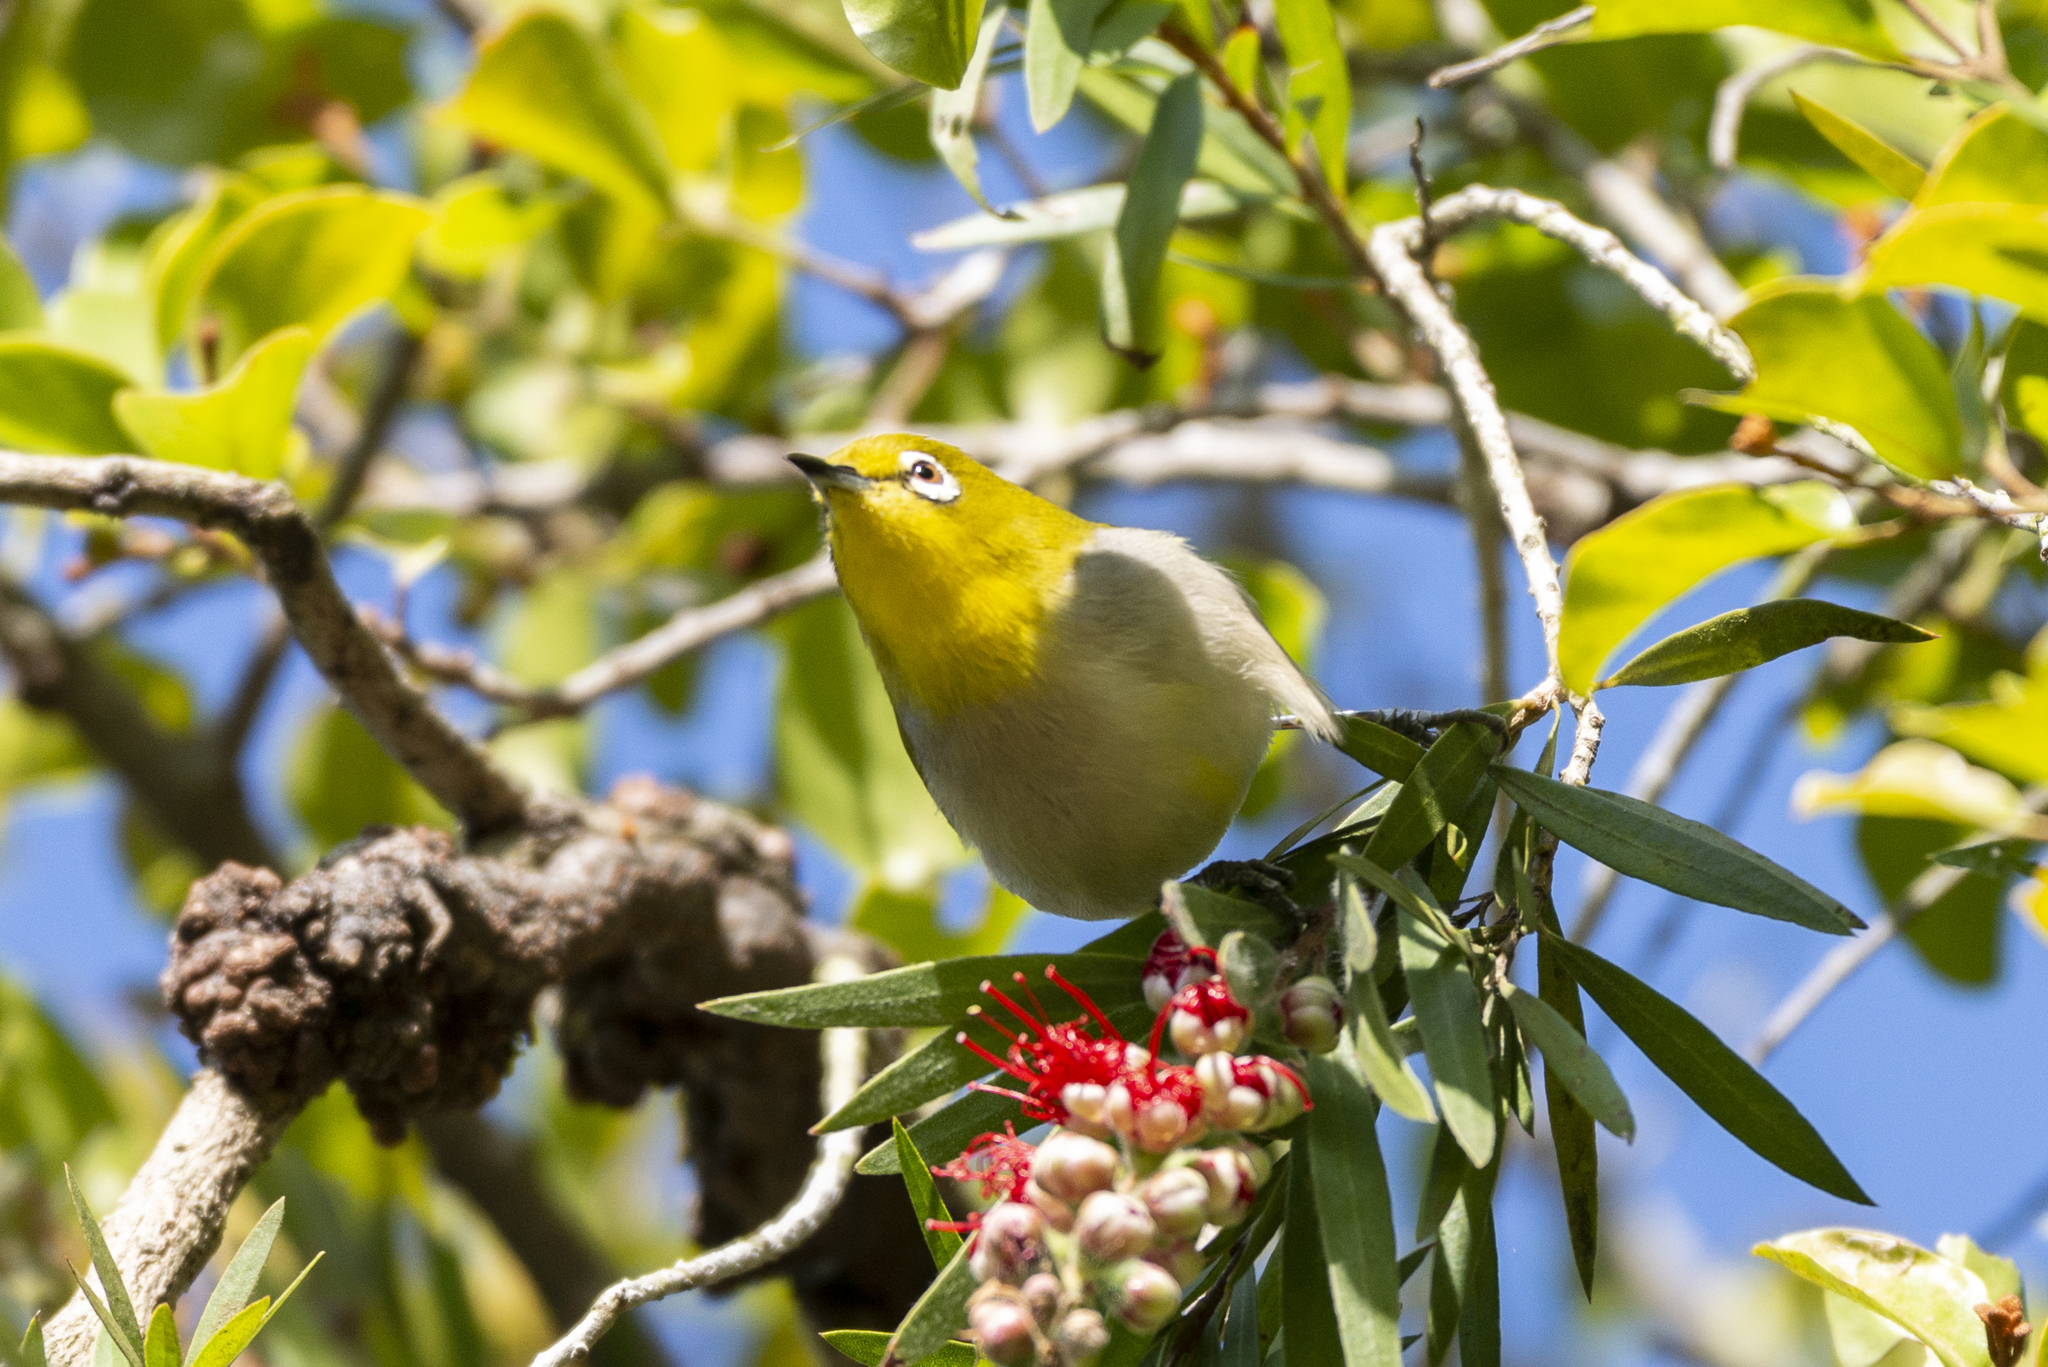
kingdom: Animalia
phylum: Chordata
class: Aves
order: Passeriformes
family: Zosteropidae
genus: Zosterops
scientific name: Zosterops simplex
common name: Swinhoe's white-eye
